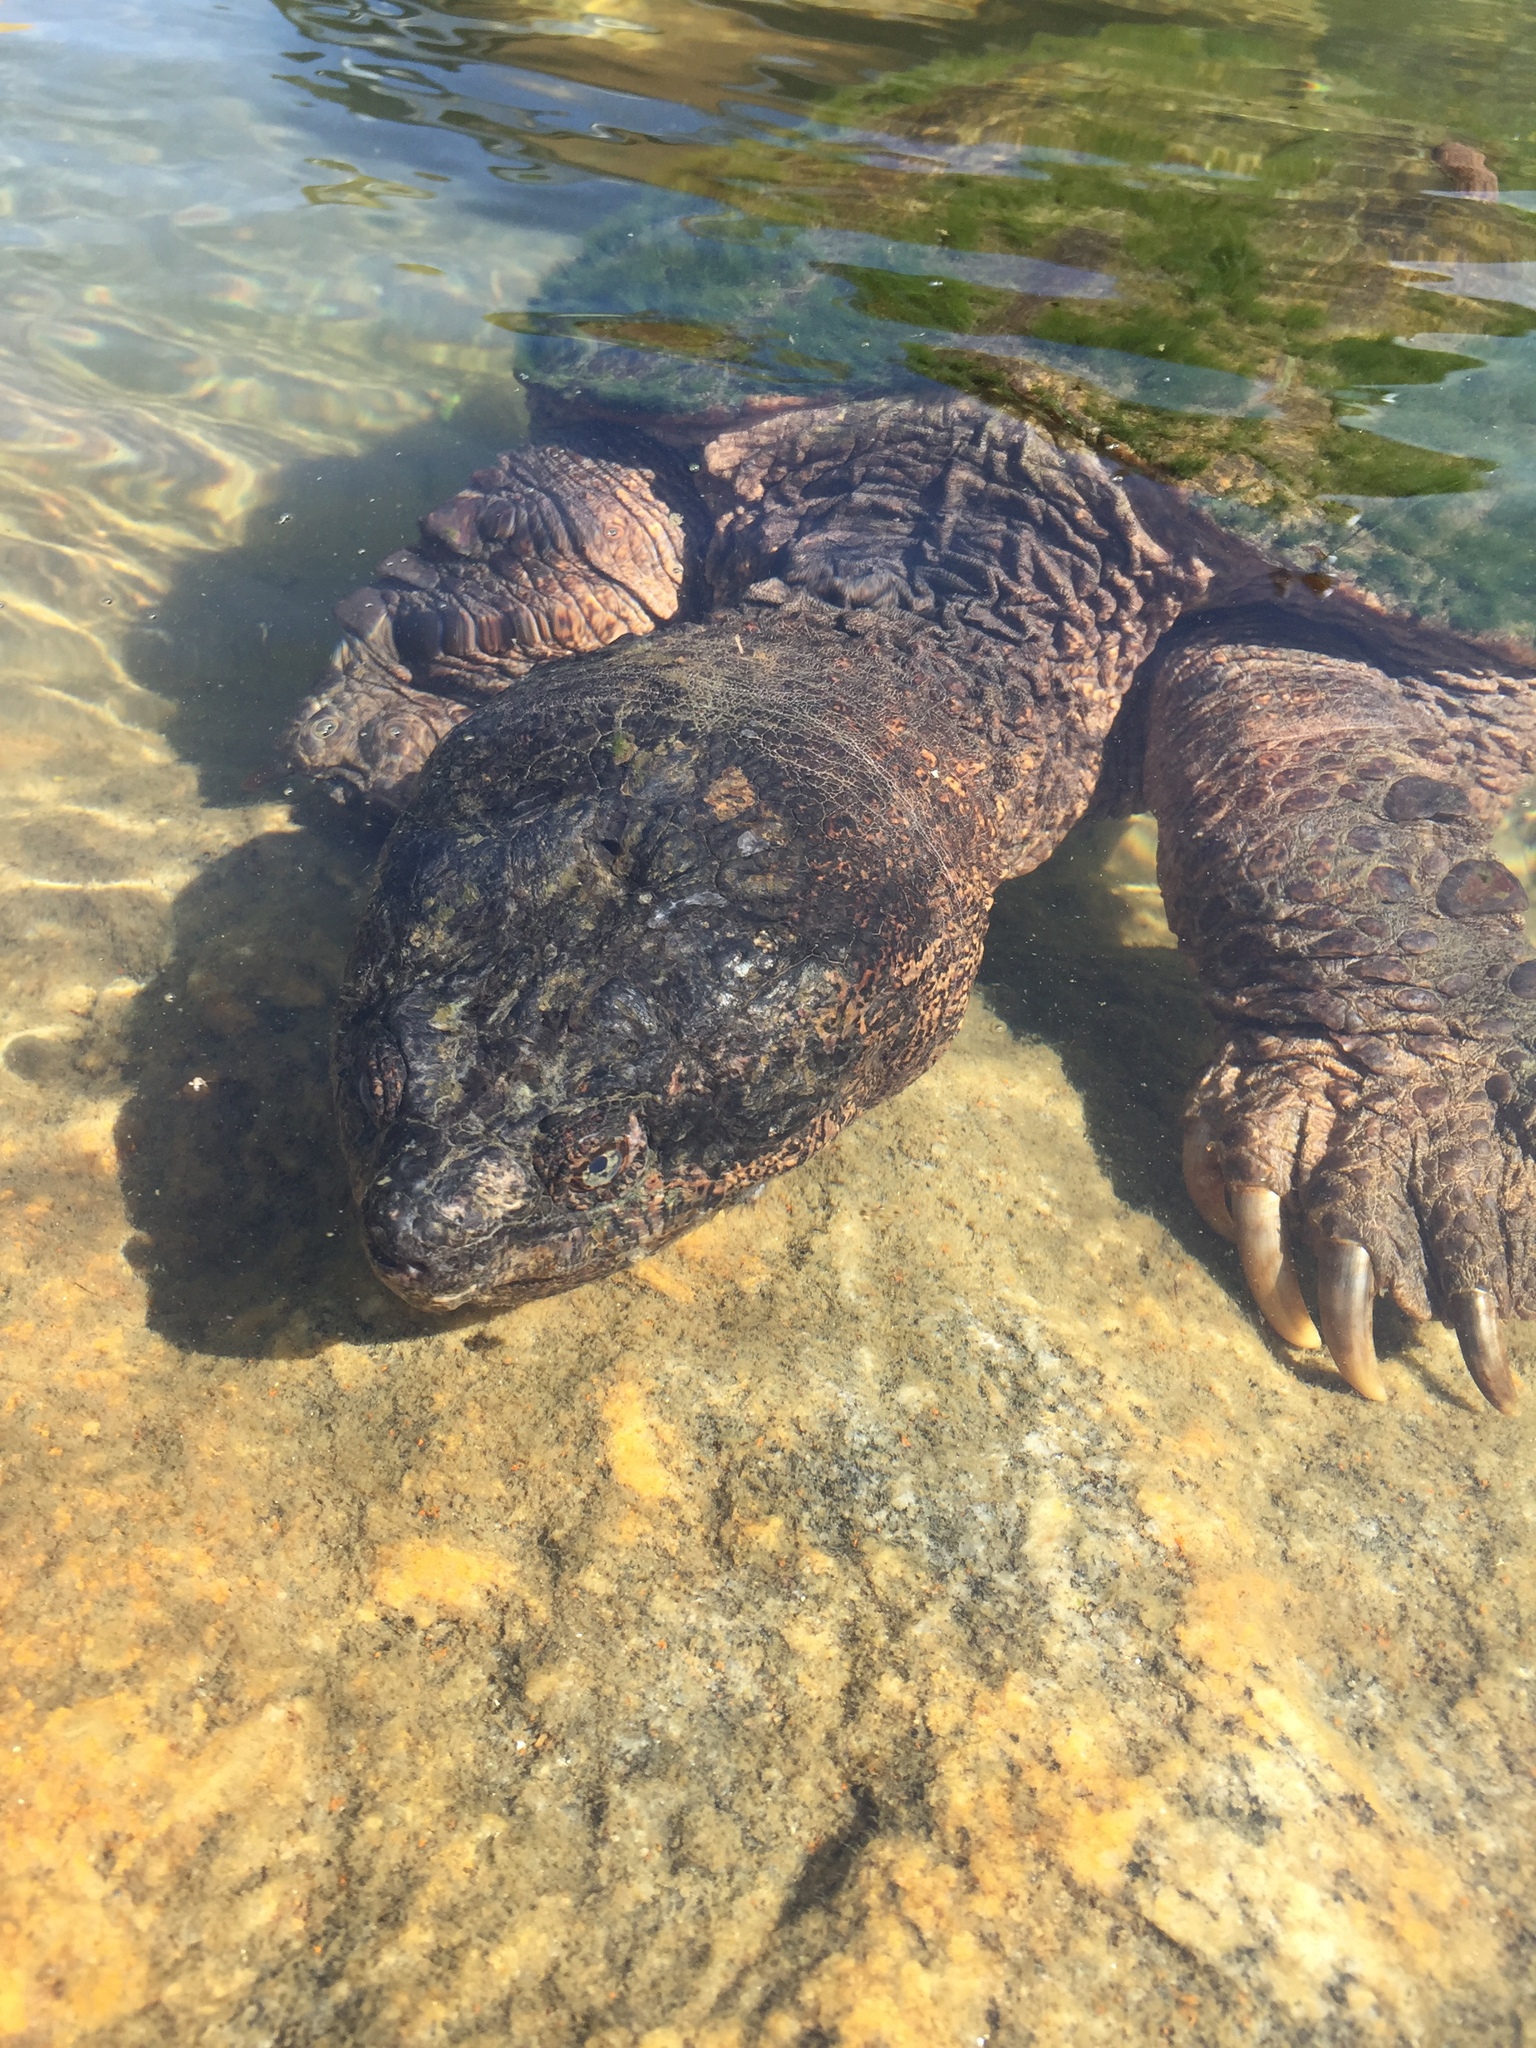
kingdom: Animalia
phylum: Chordata
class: Testudines
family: Chelydridae
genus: Chelydra
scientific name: Chelydra serpentina
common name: Common snapping turtle
